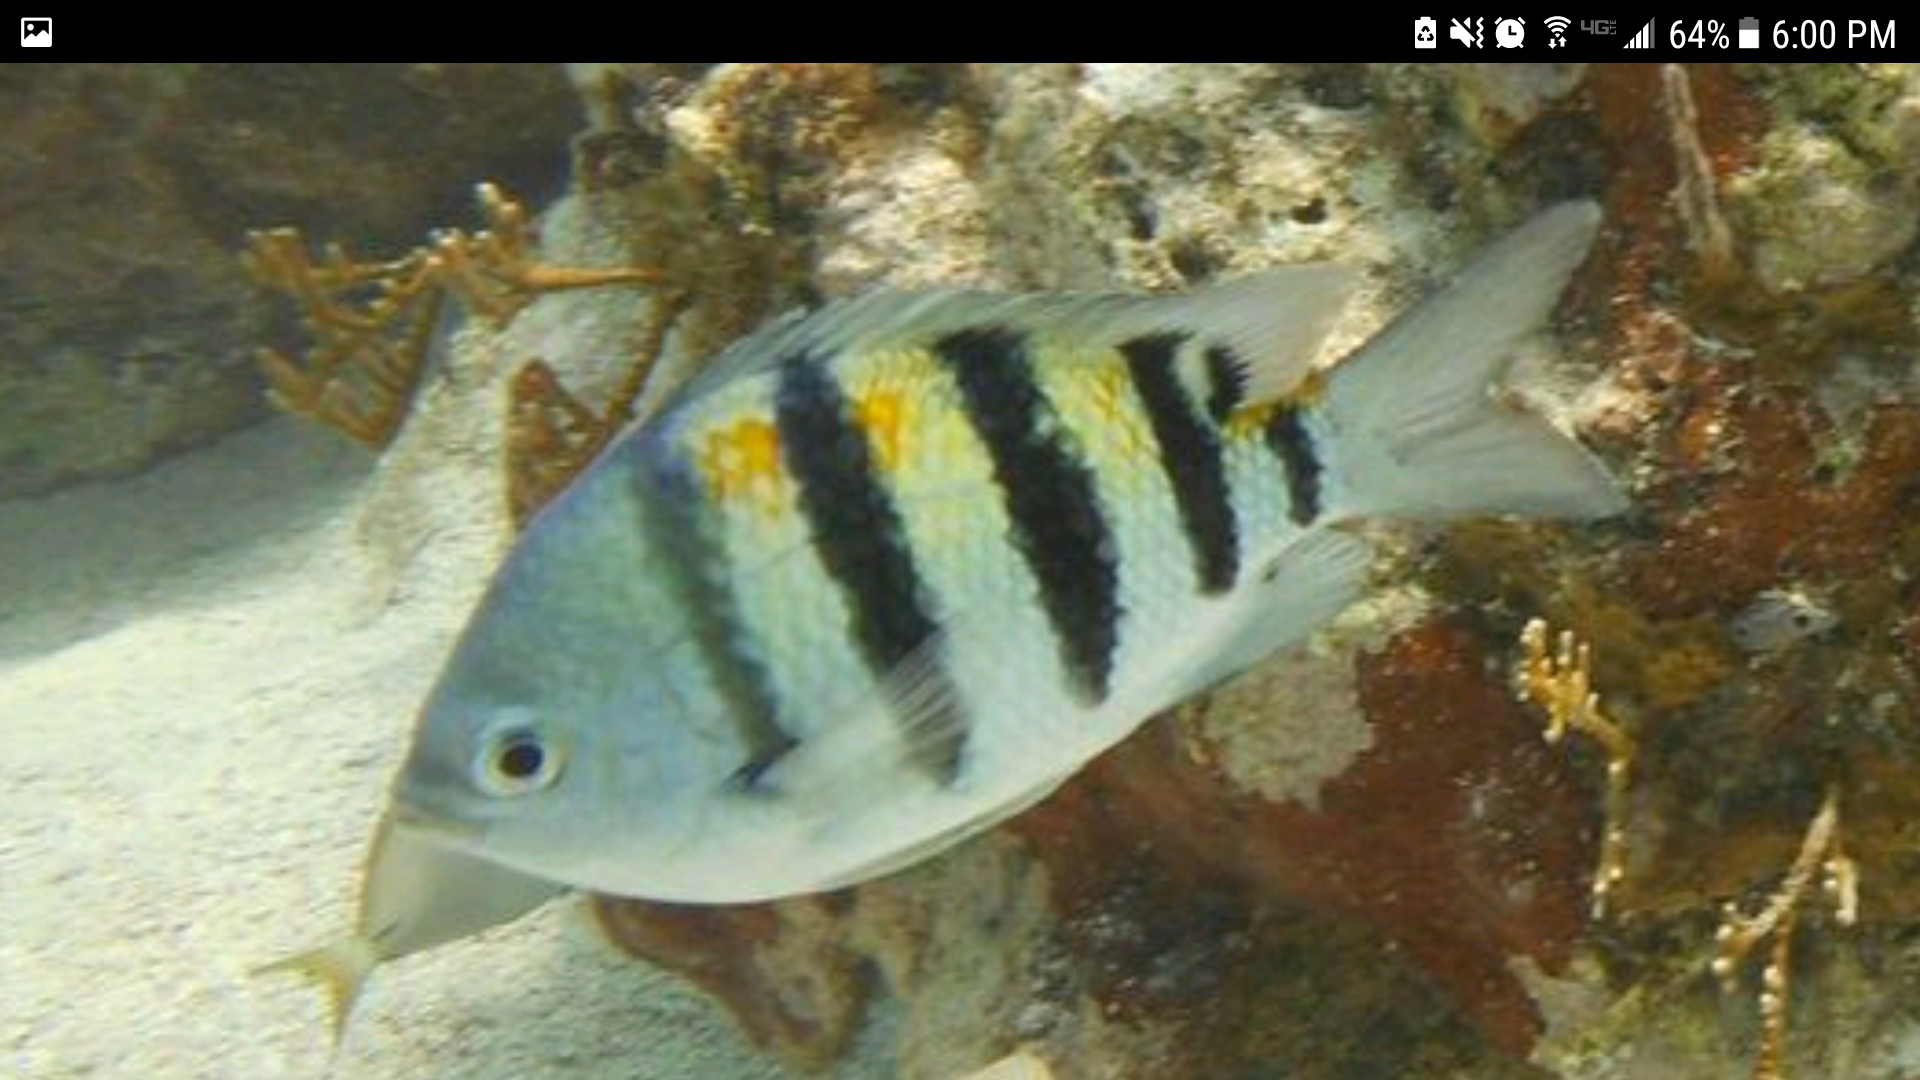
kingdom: Animalia
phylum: Chordata
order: Perciformes
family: Pomacentridae
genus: Abudefduf
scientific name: Abudefduf saxatilis
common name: Sergeant major
